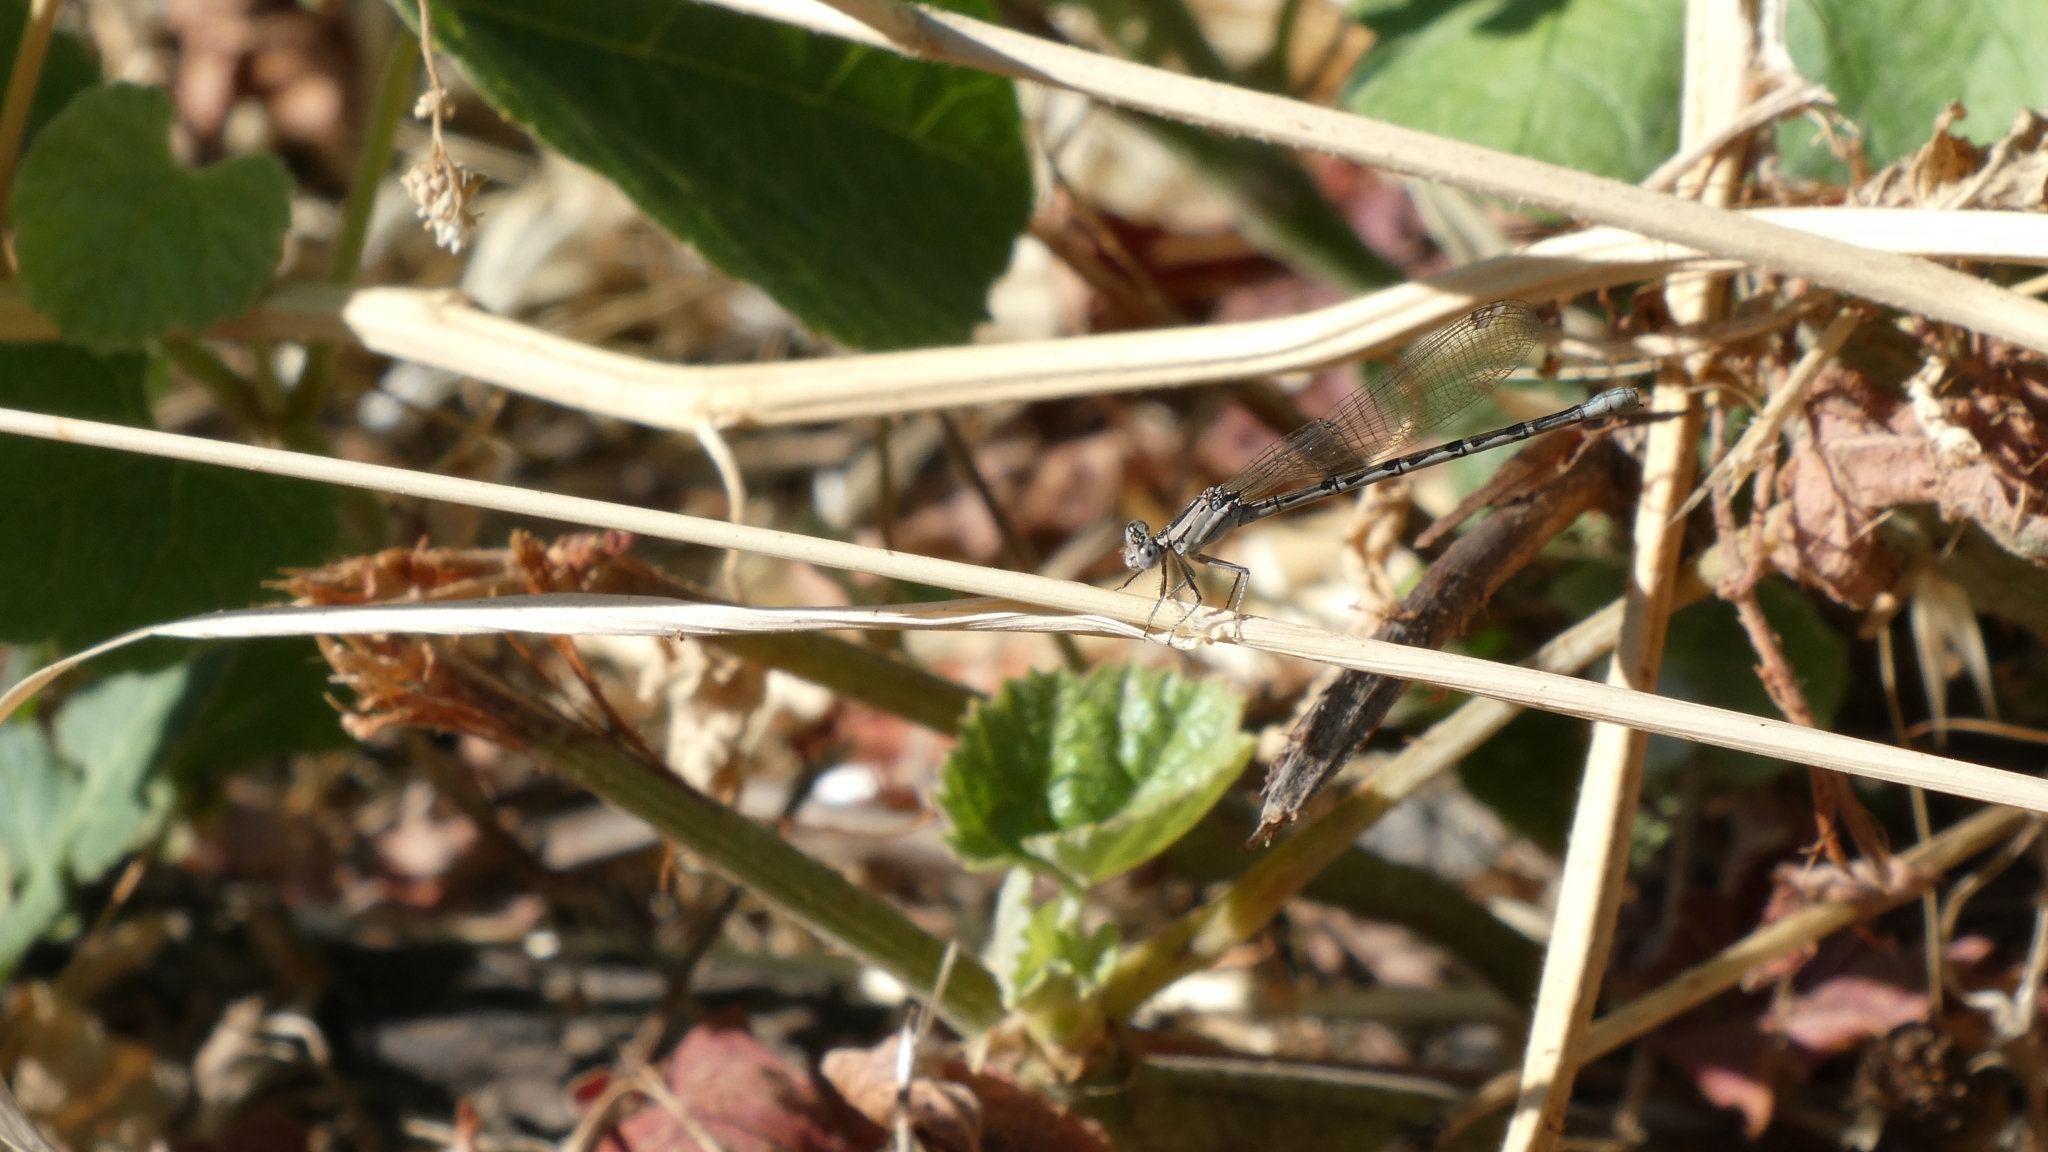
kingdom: Animalia
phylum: Arthropoda
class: Insecta
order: Odonata
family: Coenagrionidae
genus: Argia
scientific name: Argia vivida
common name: Vivid dancer
